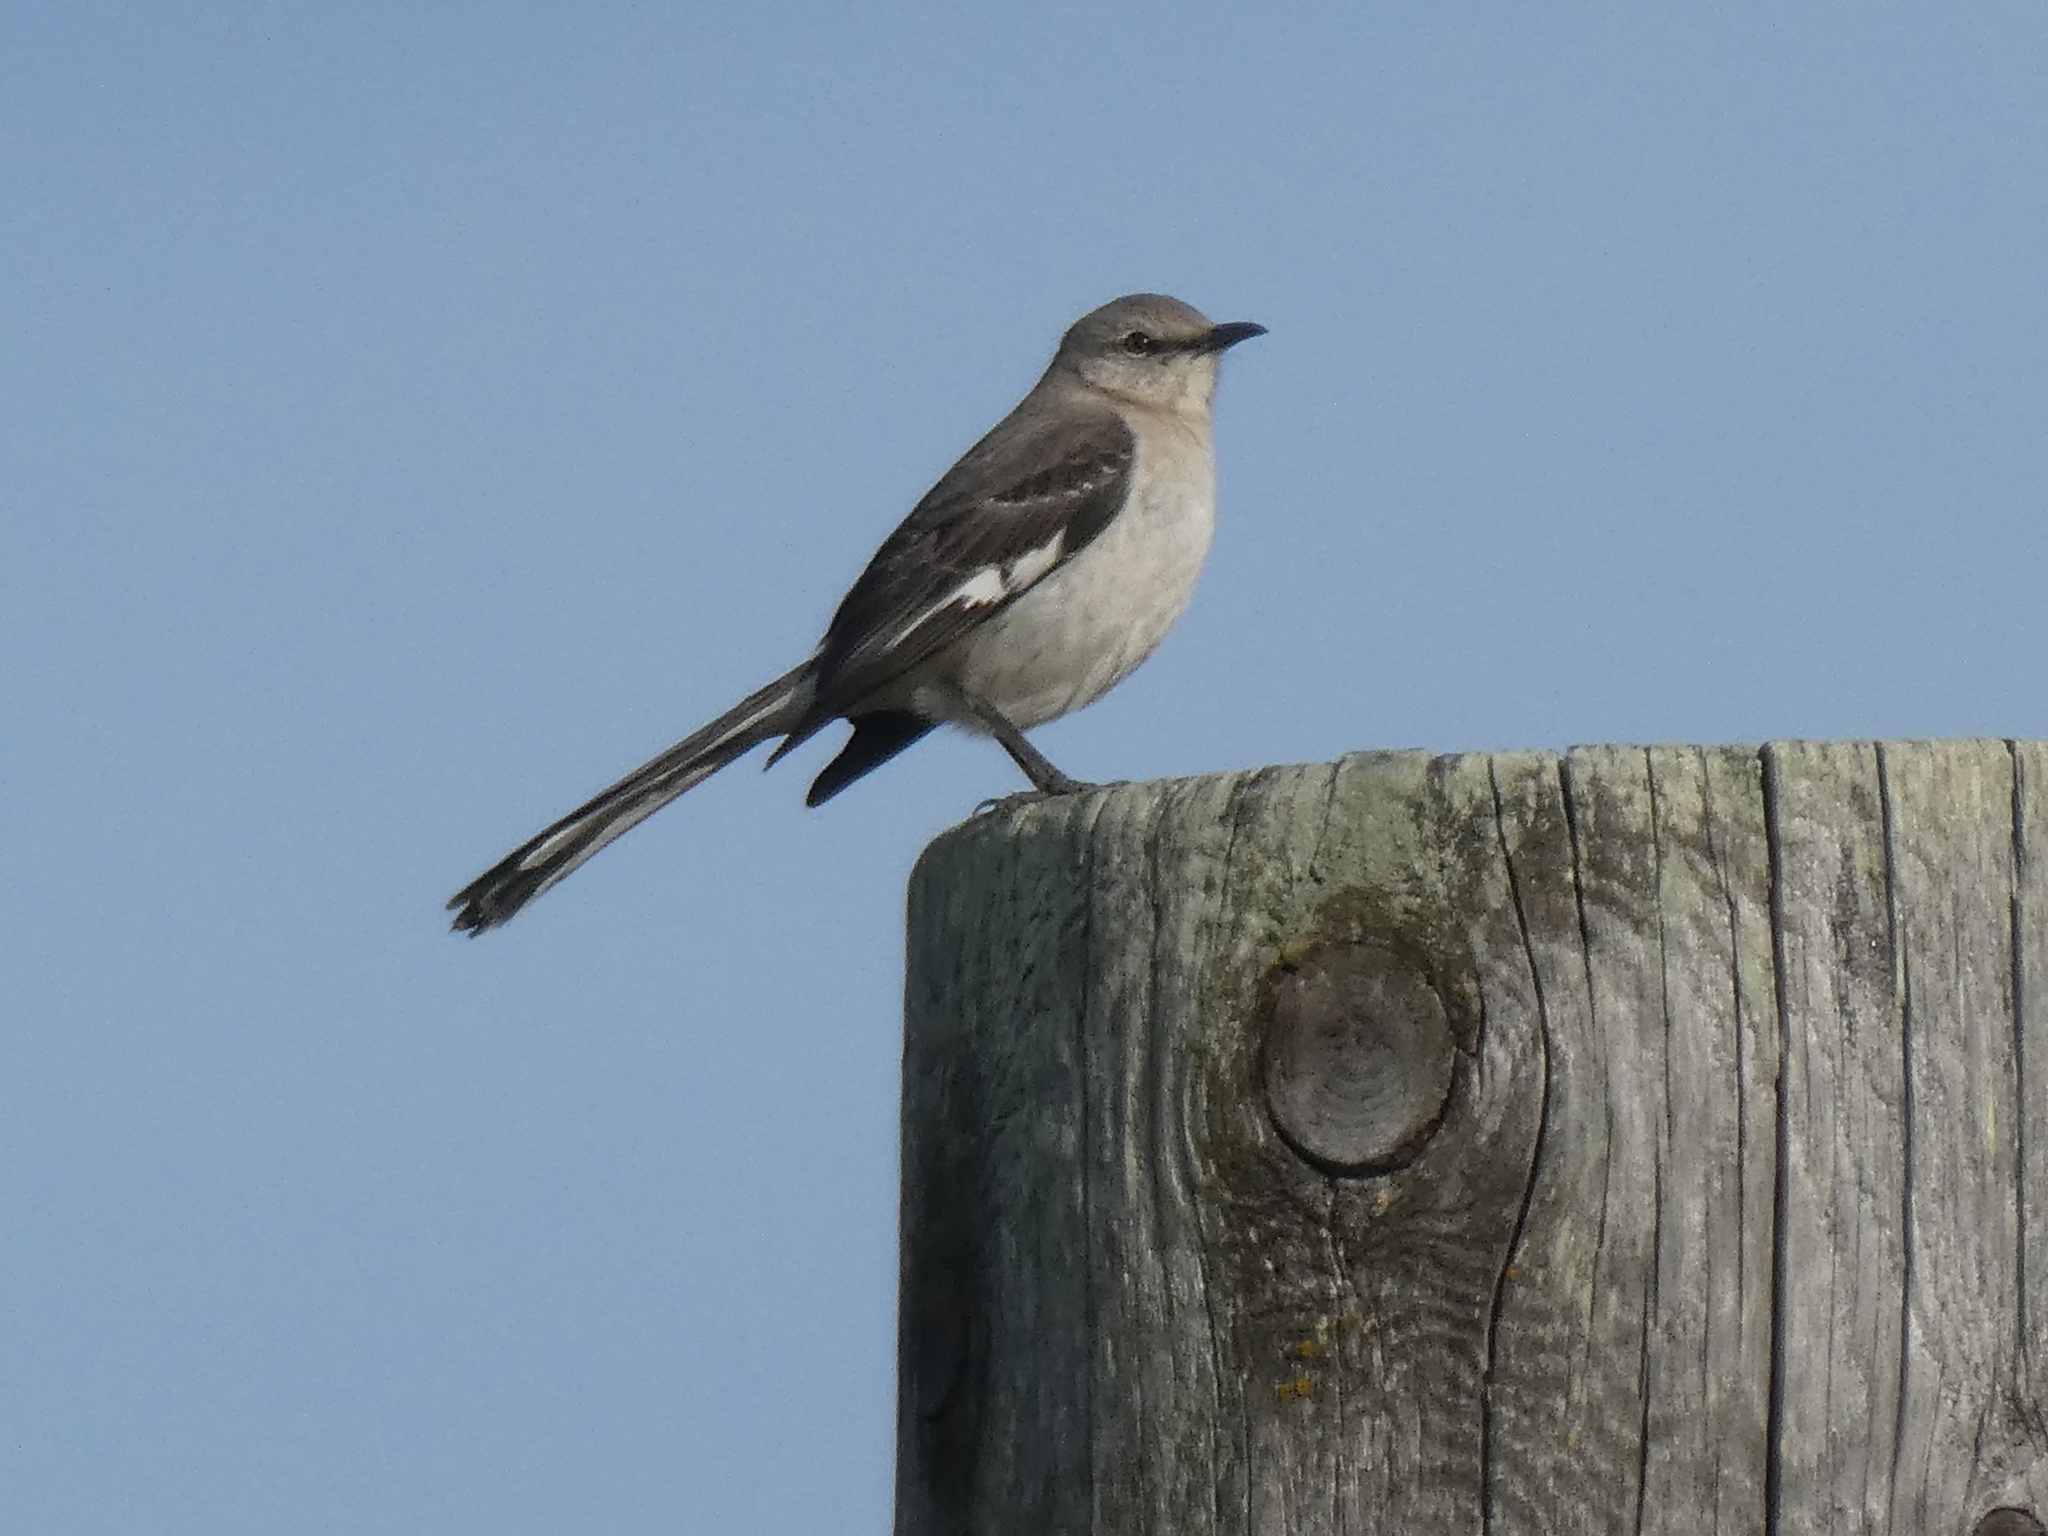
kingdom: Animalia
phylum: Chordata
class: Aves
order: Passeriformes
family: Mimidae
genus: Mimus
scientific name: Mimus polyglottos
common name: Northern mockingbird
